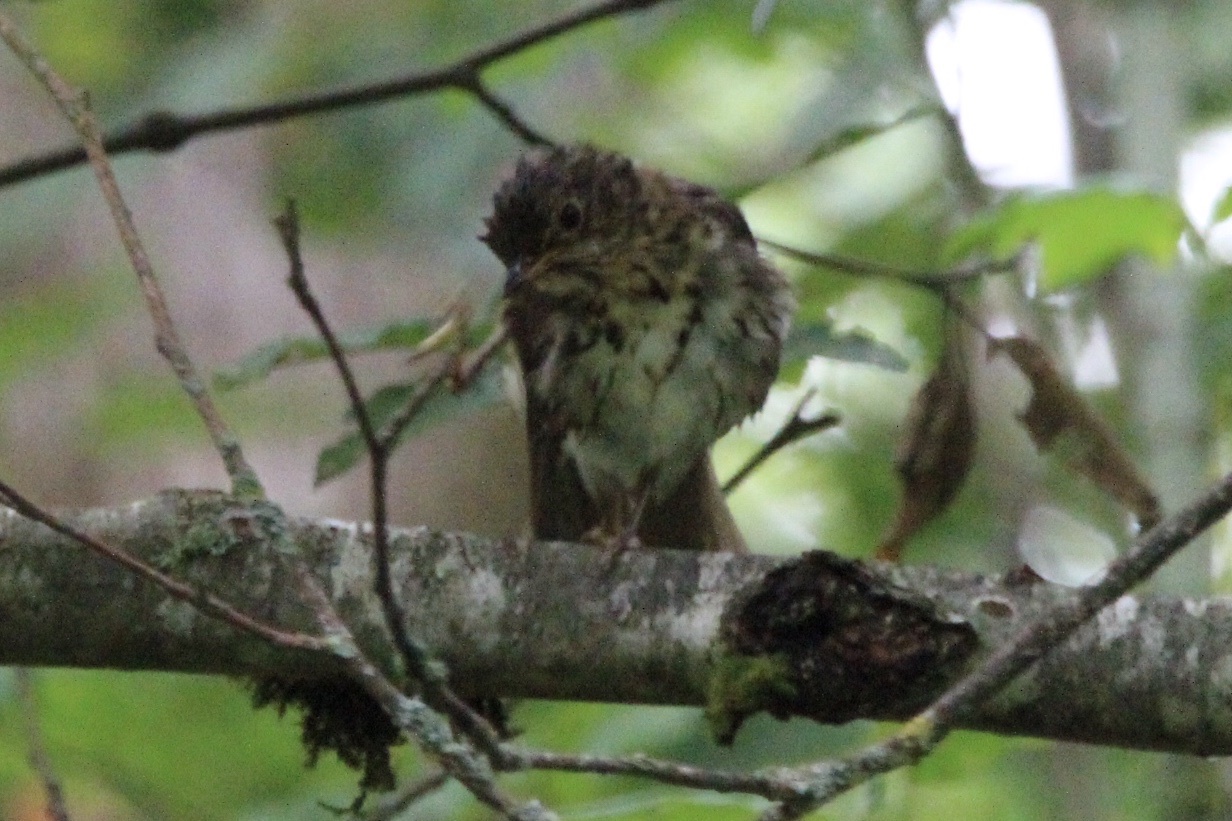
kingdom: Animalia
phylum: Chordata
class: Aves
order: Passeriformes
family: Turdidae
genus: Catharus
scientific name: Catharus ustulatus
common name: Swainson's thrush
